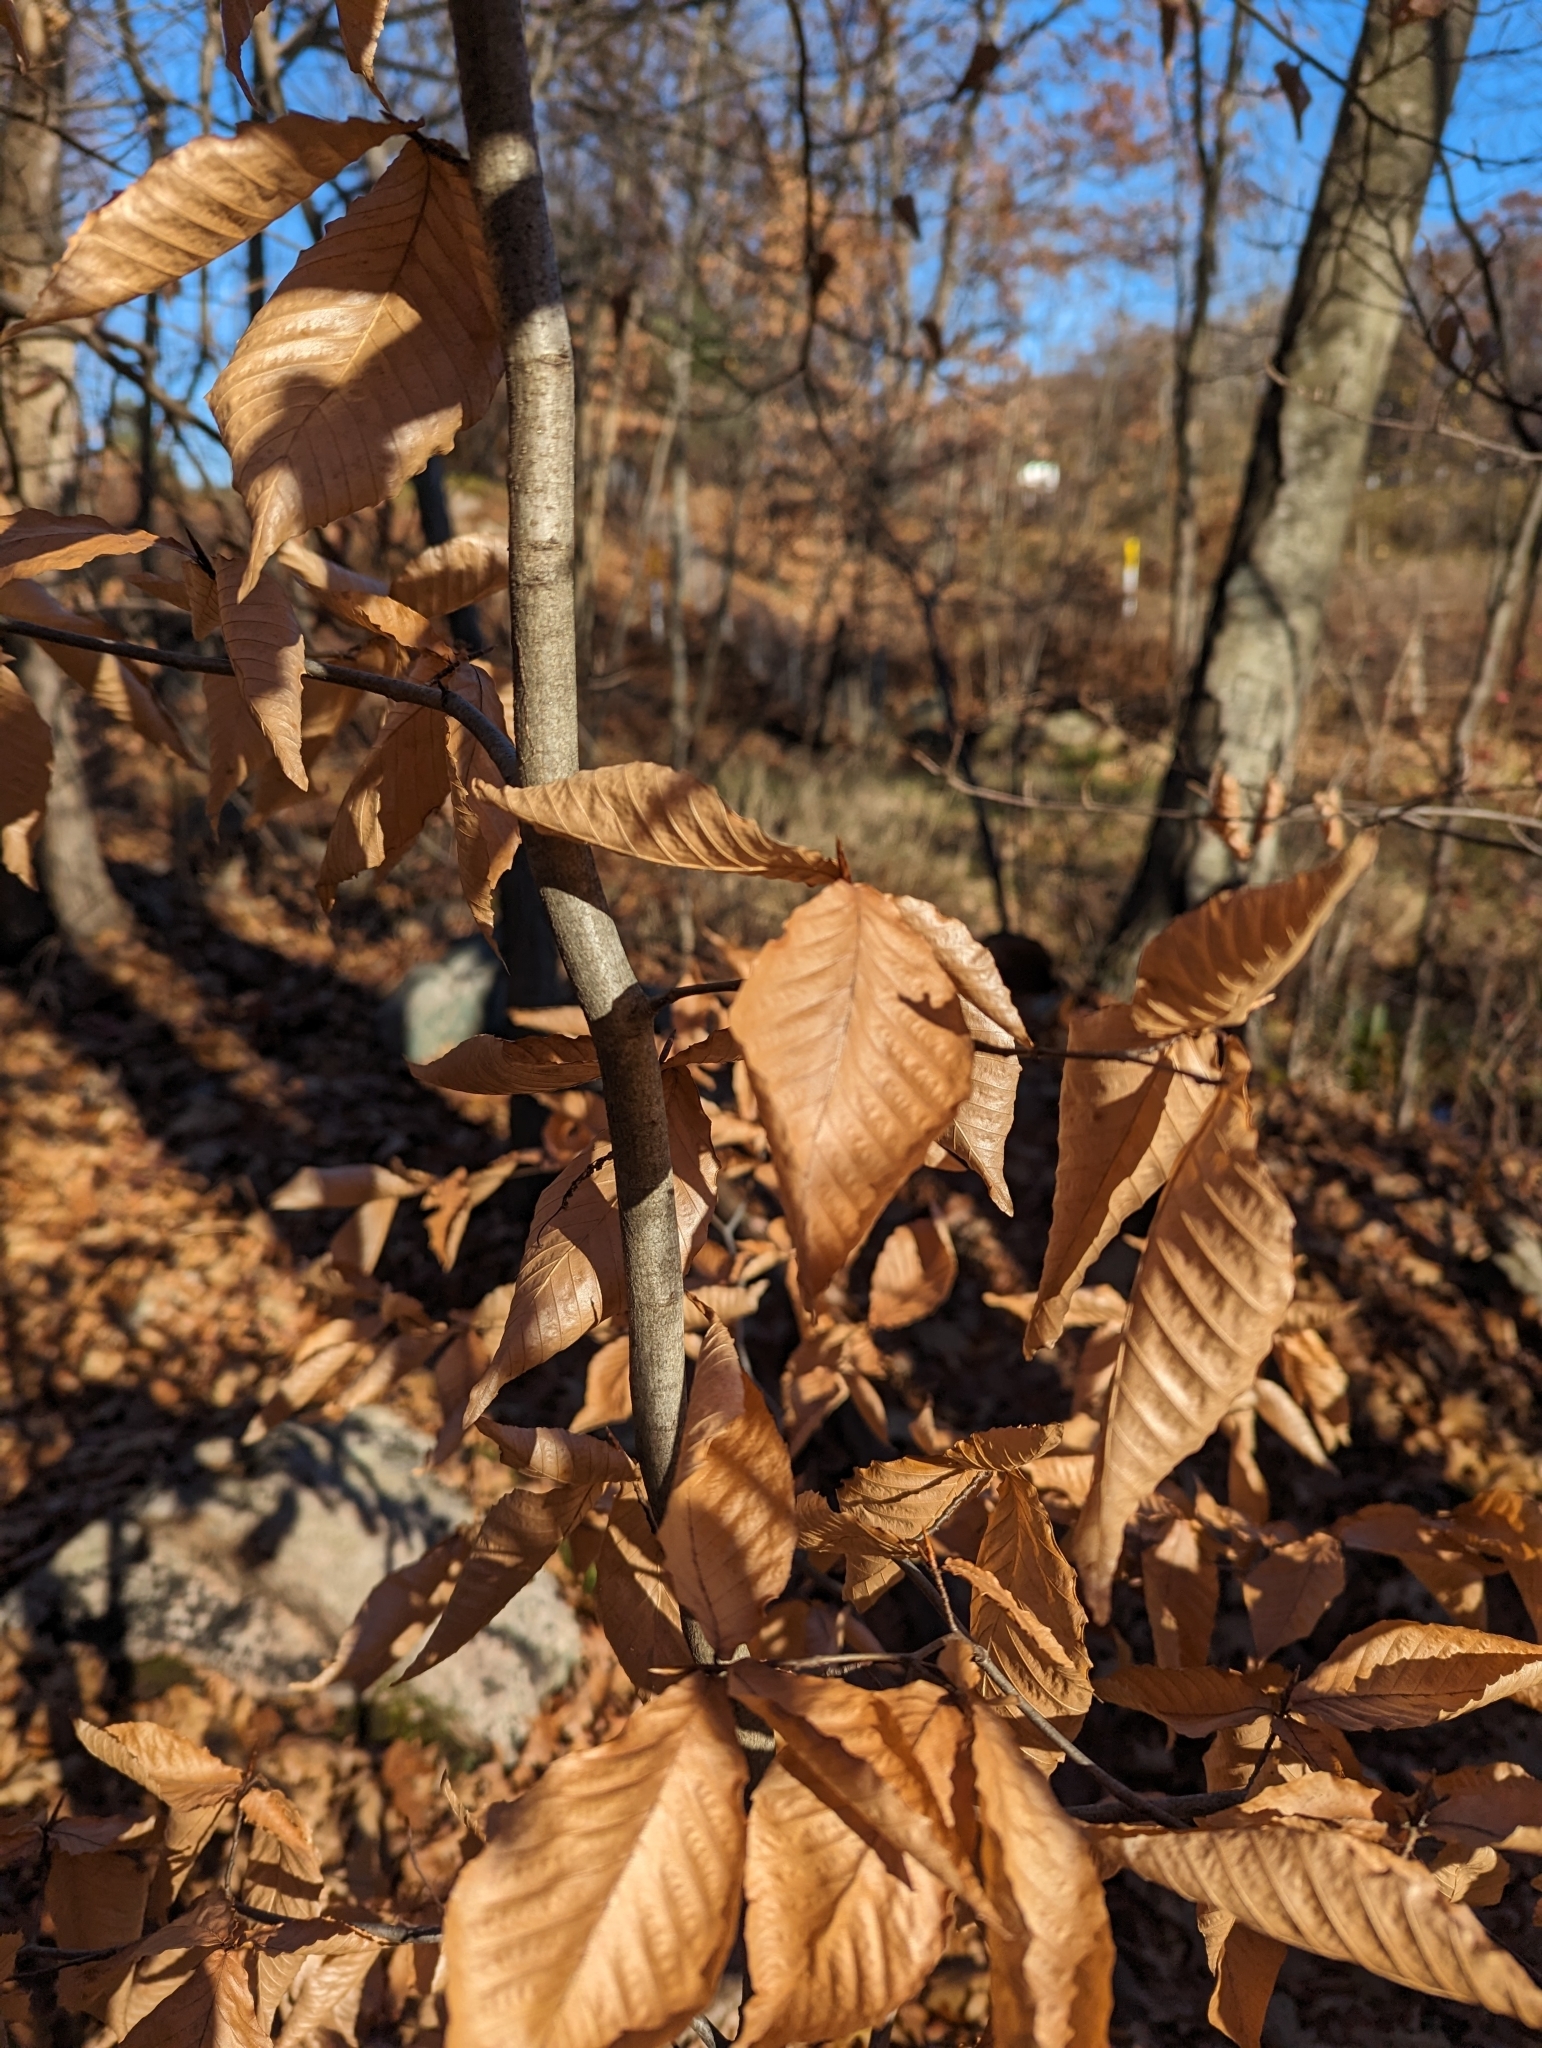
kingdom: Plantae
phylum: Tracheophyta
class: Magnoliopsida
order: Fagales
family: Fagaceae
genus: Fagus
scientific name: Fagus grandifolia
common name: American beech
